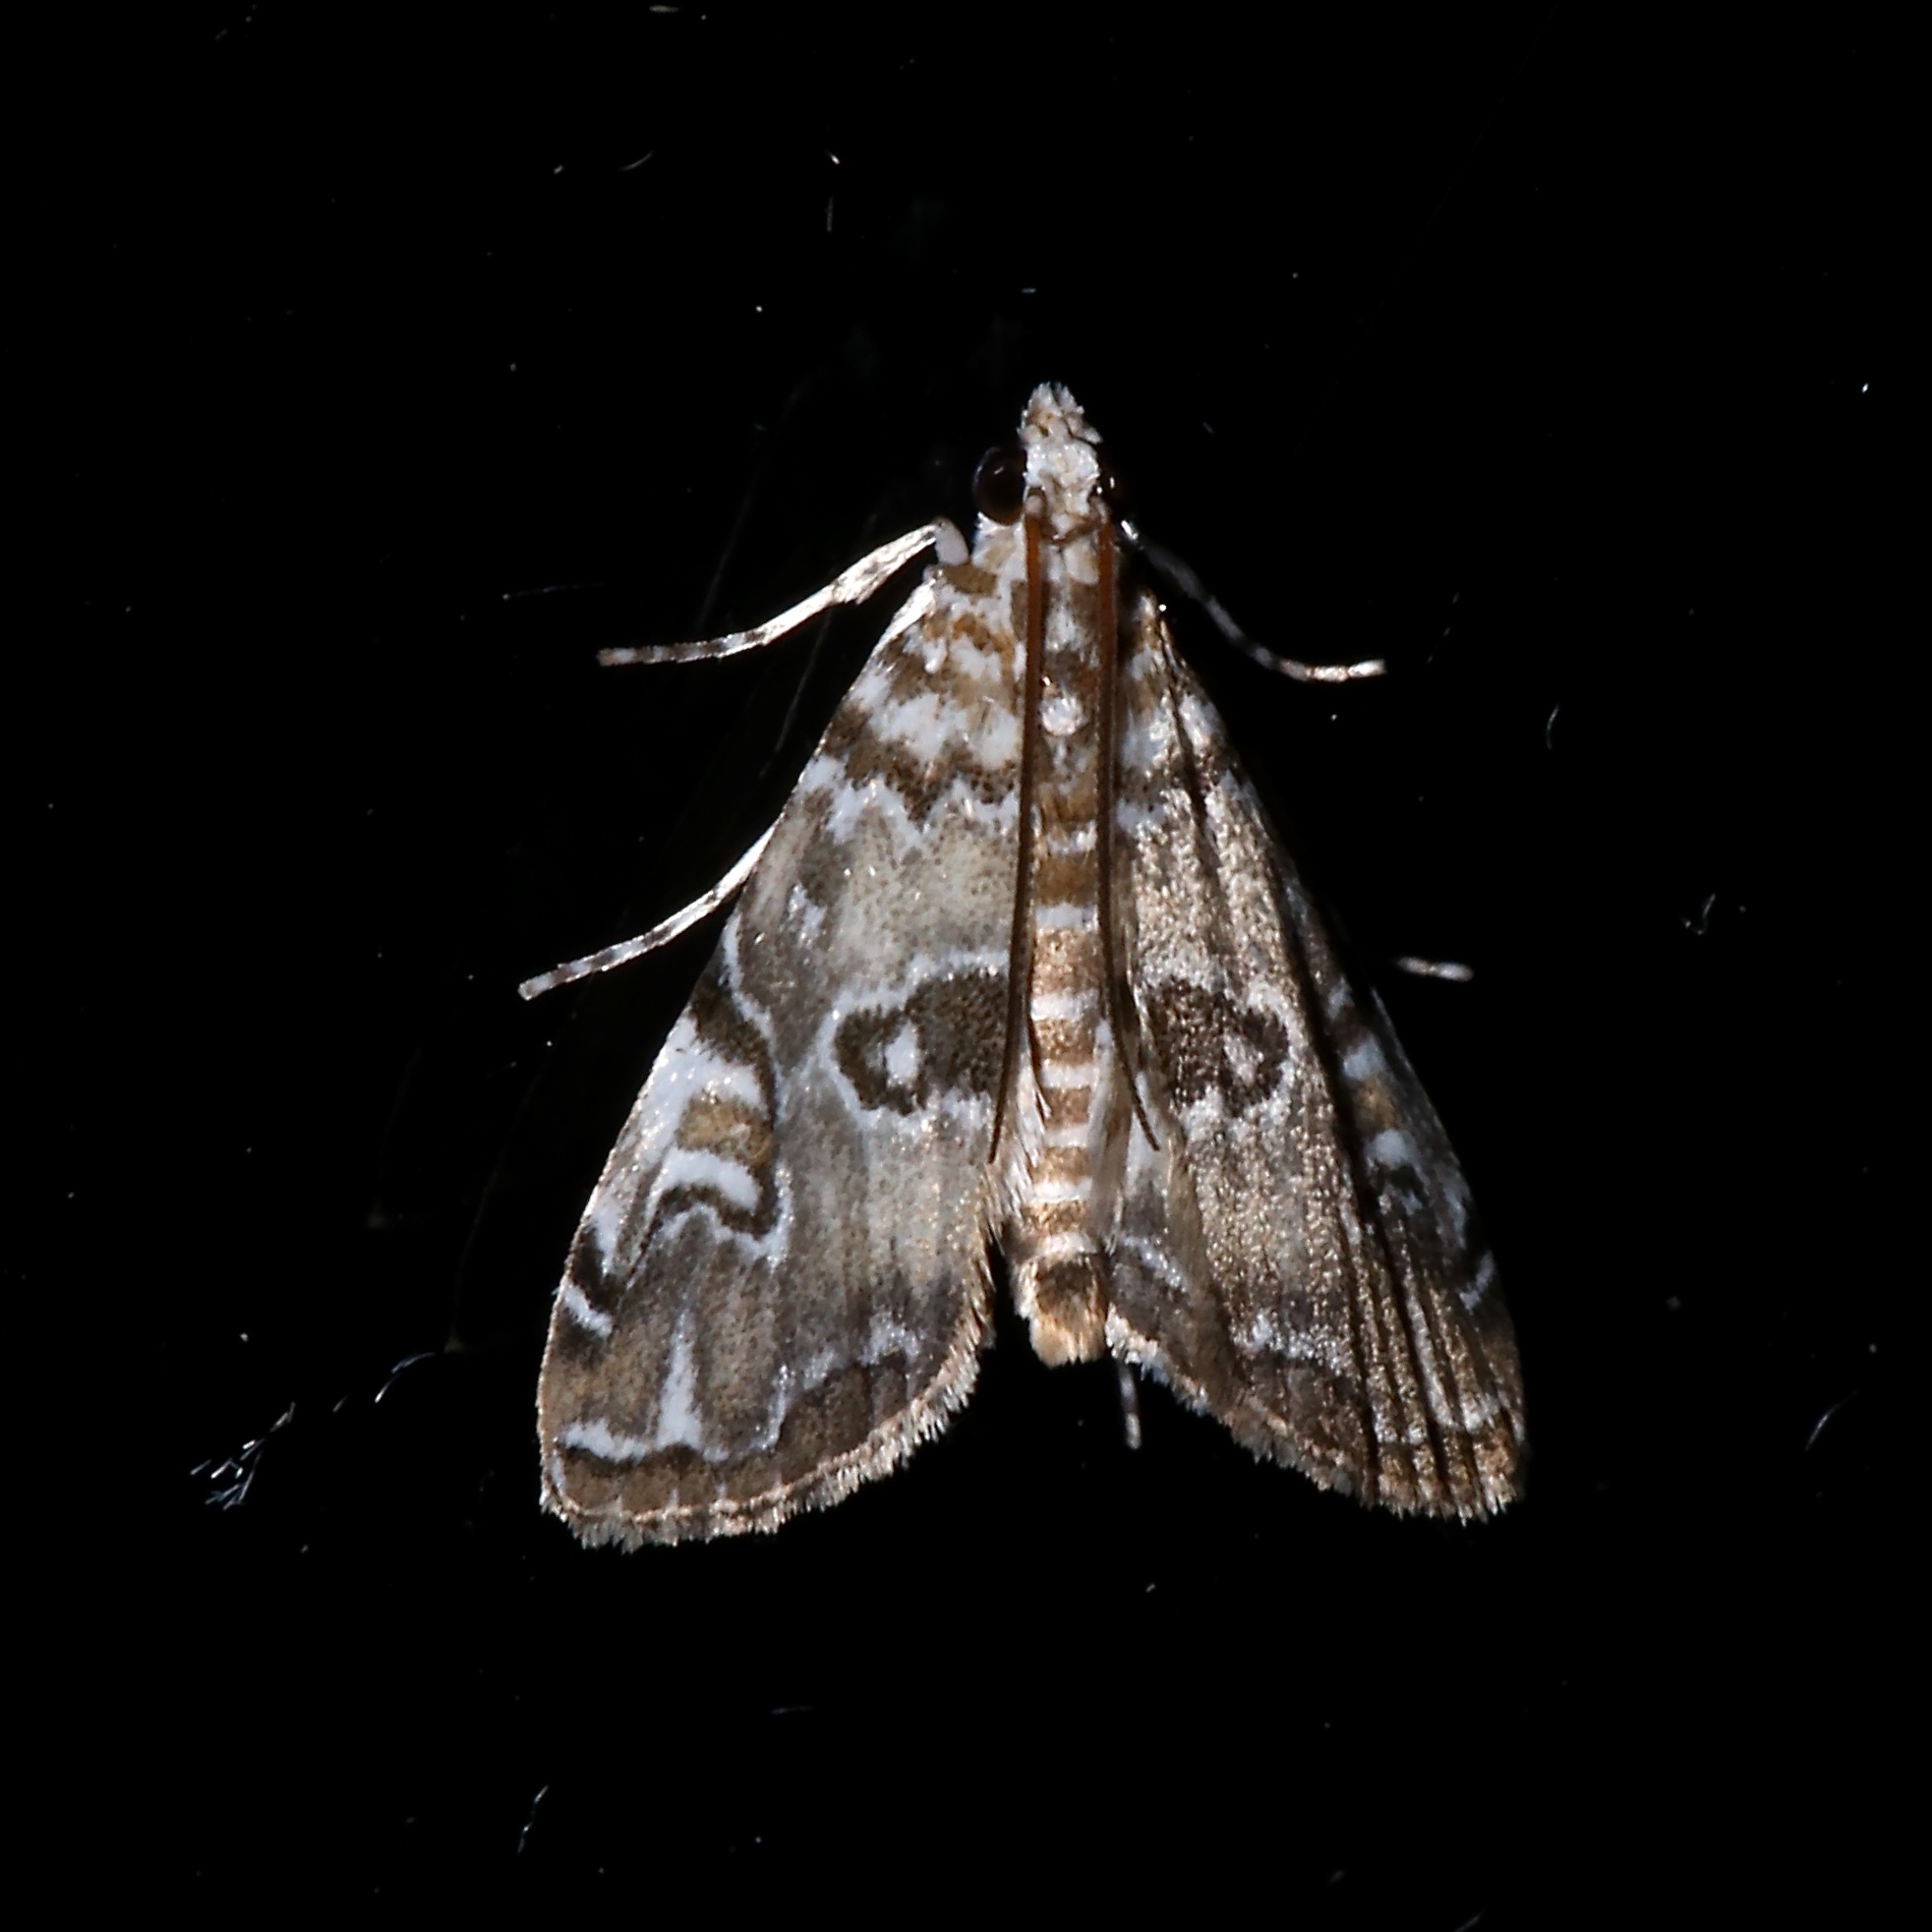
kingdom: Animalia
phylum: Arthropoda
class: Insecta
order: Lepidoptera
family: Crambidae
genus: Elophila
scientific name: Elophila gyralis
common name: Waterlily borer moth
